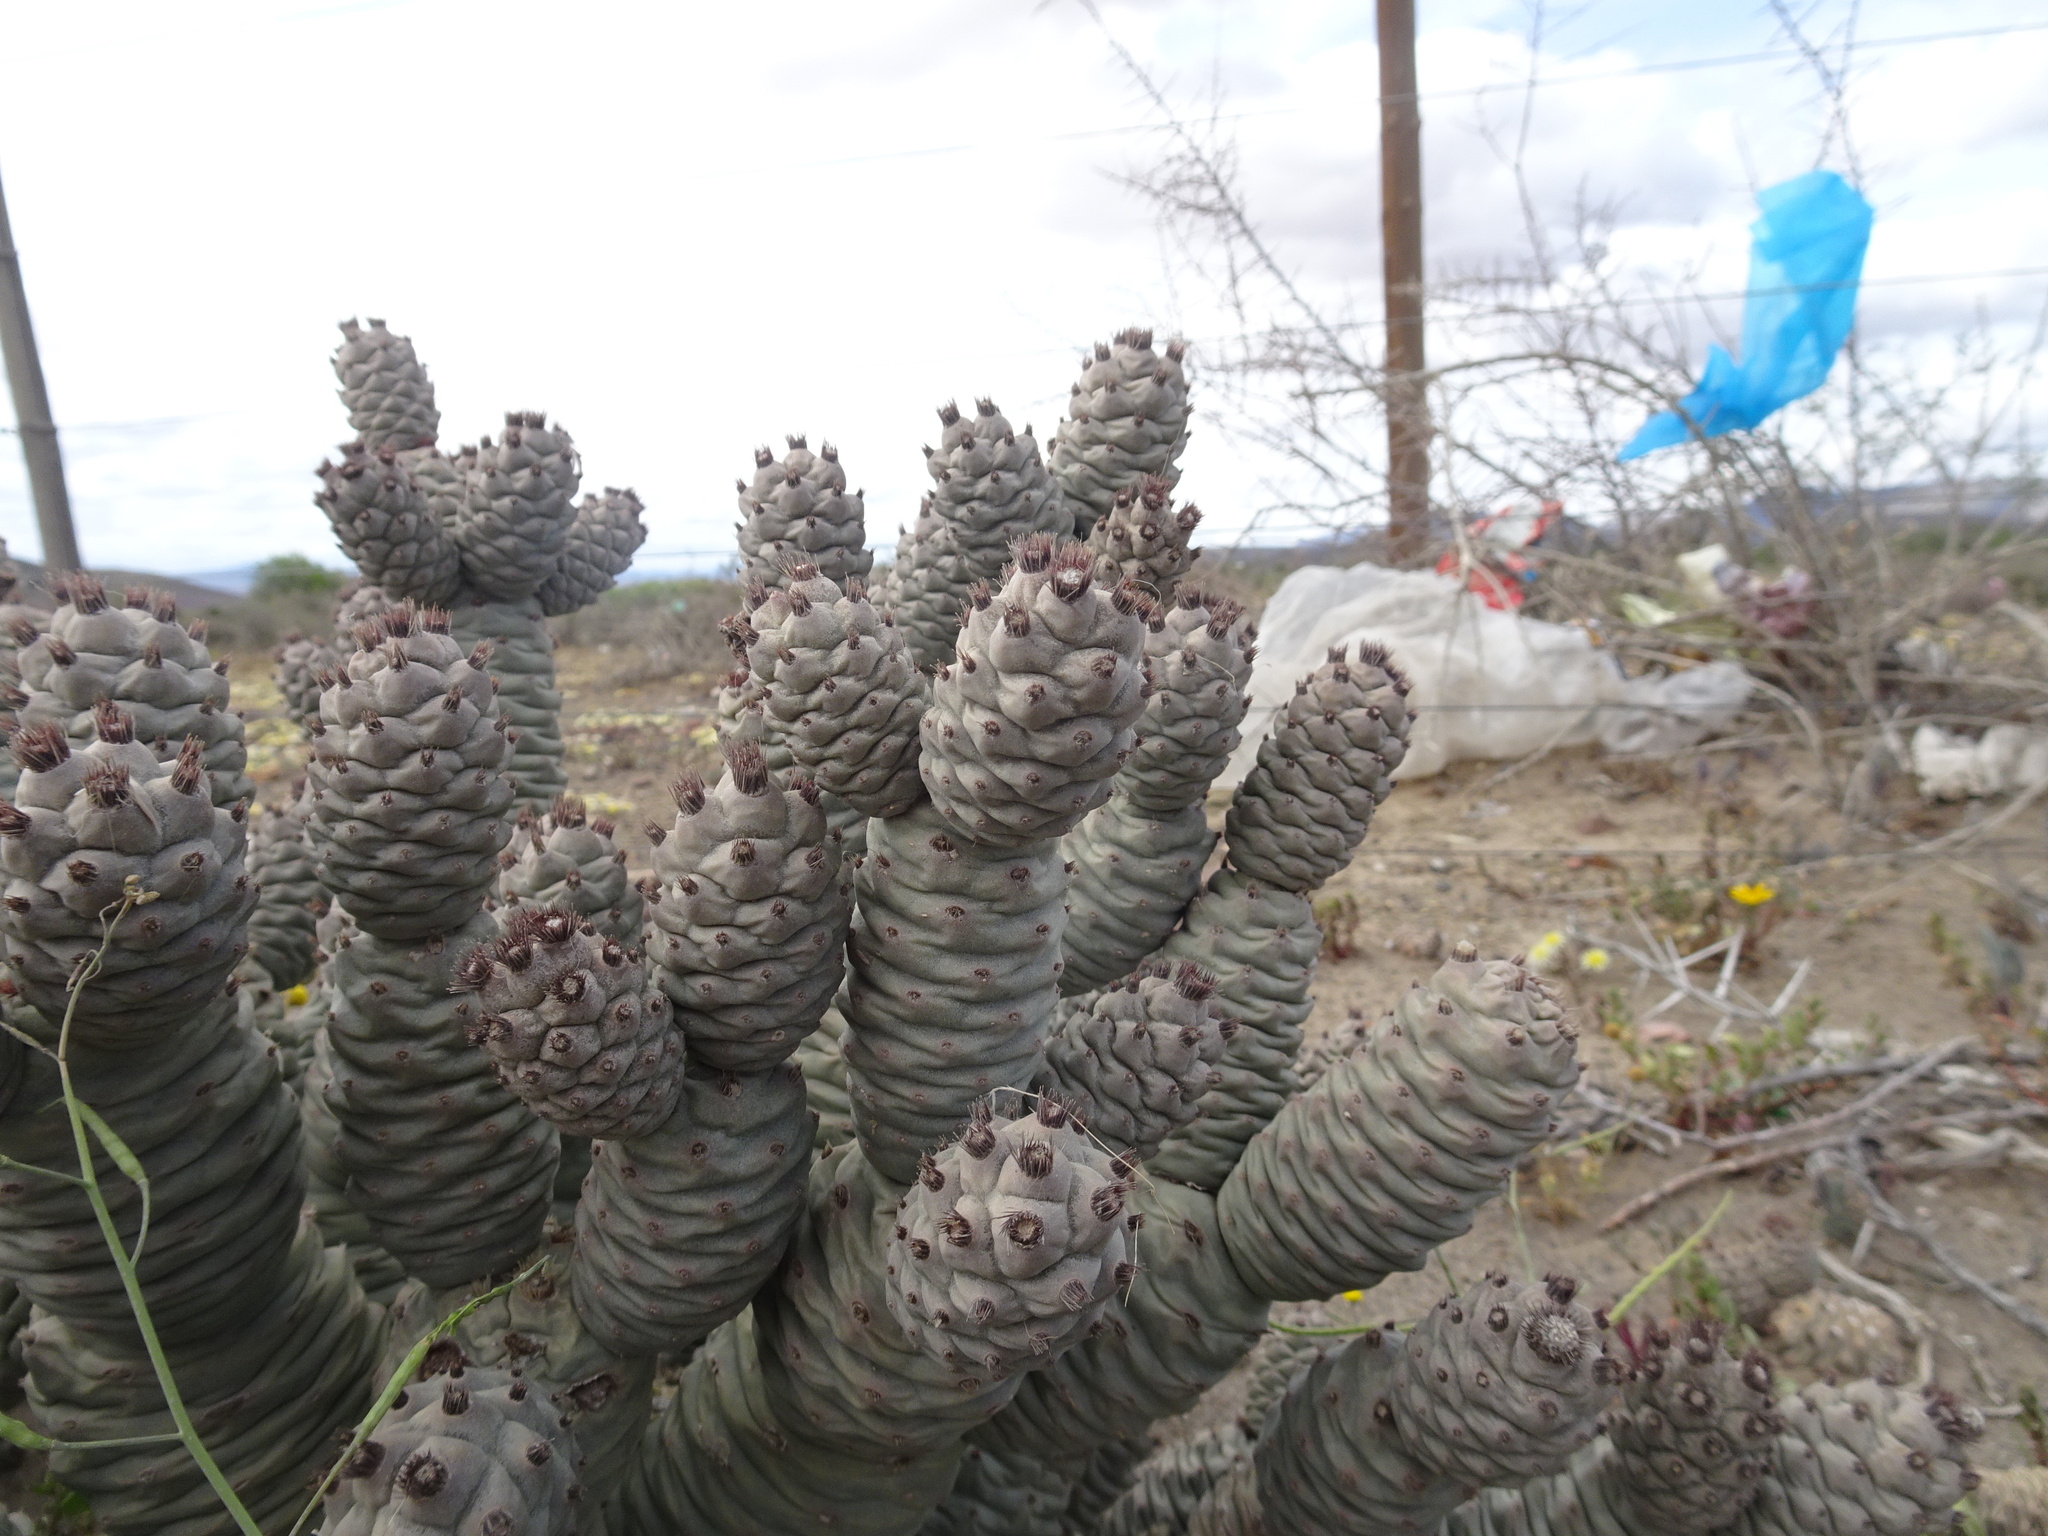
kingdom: Plantae
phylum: Tracheophyta
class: Magnoliopsida
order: Caryophyllales
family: Cactaceae
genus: Tephrocactus
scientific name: Tephrocactus articulatus
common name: Paper cactus
